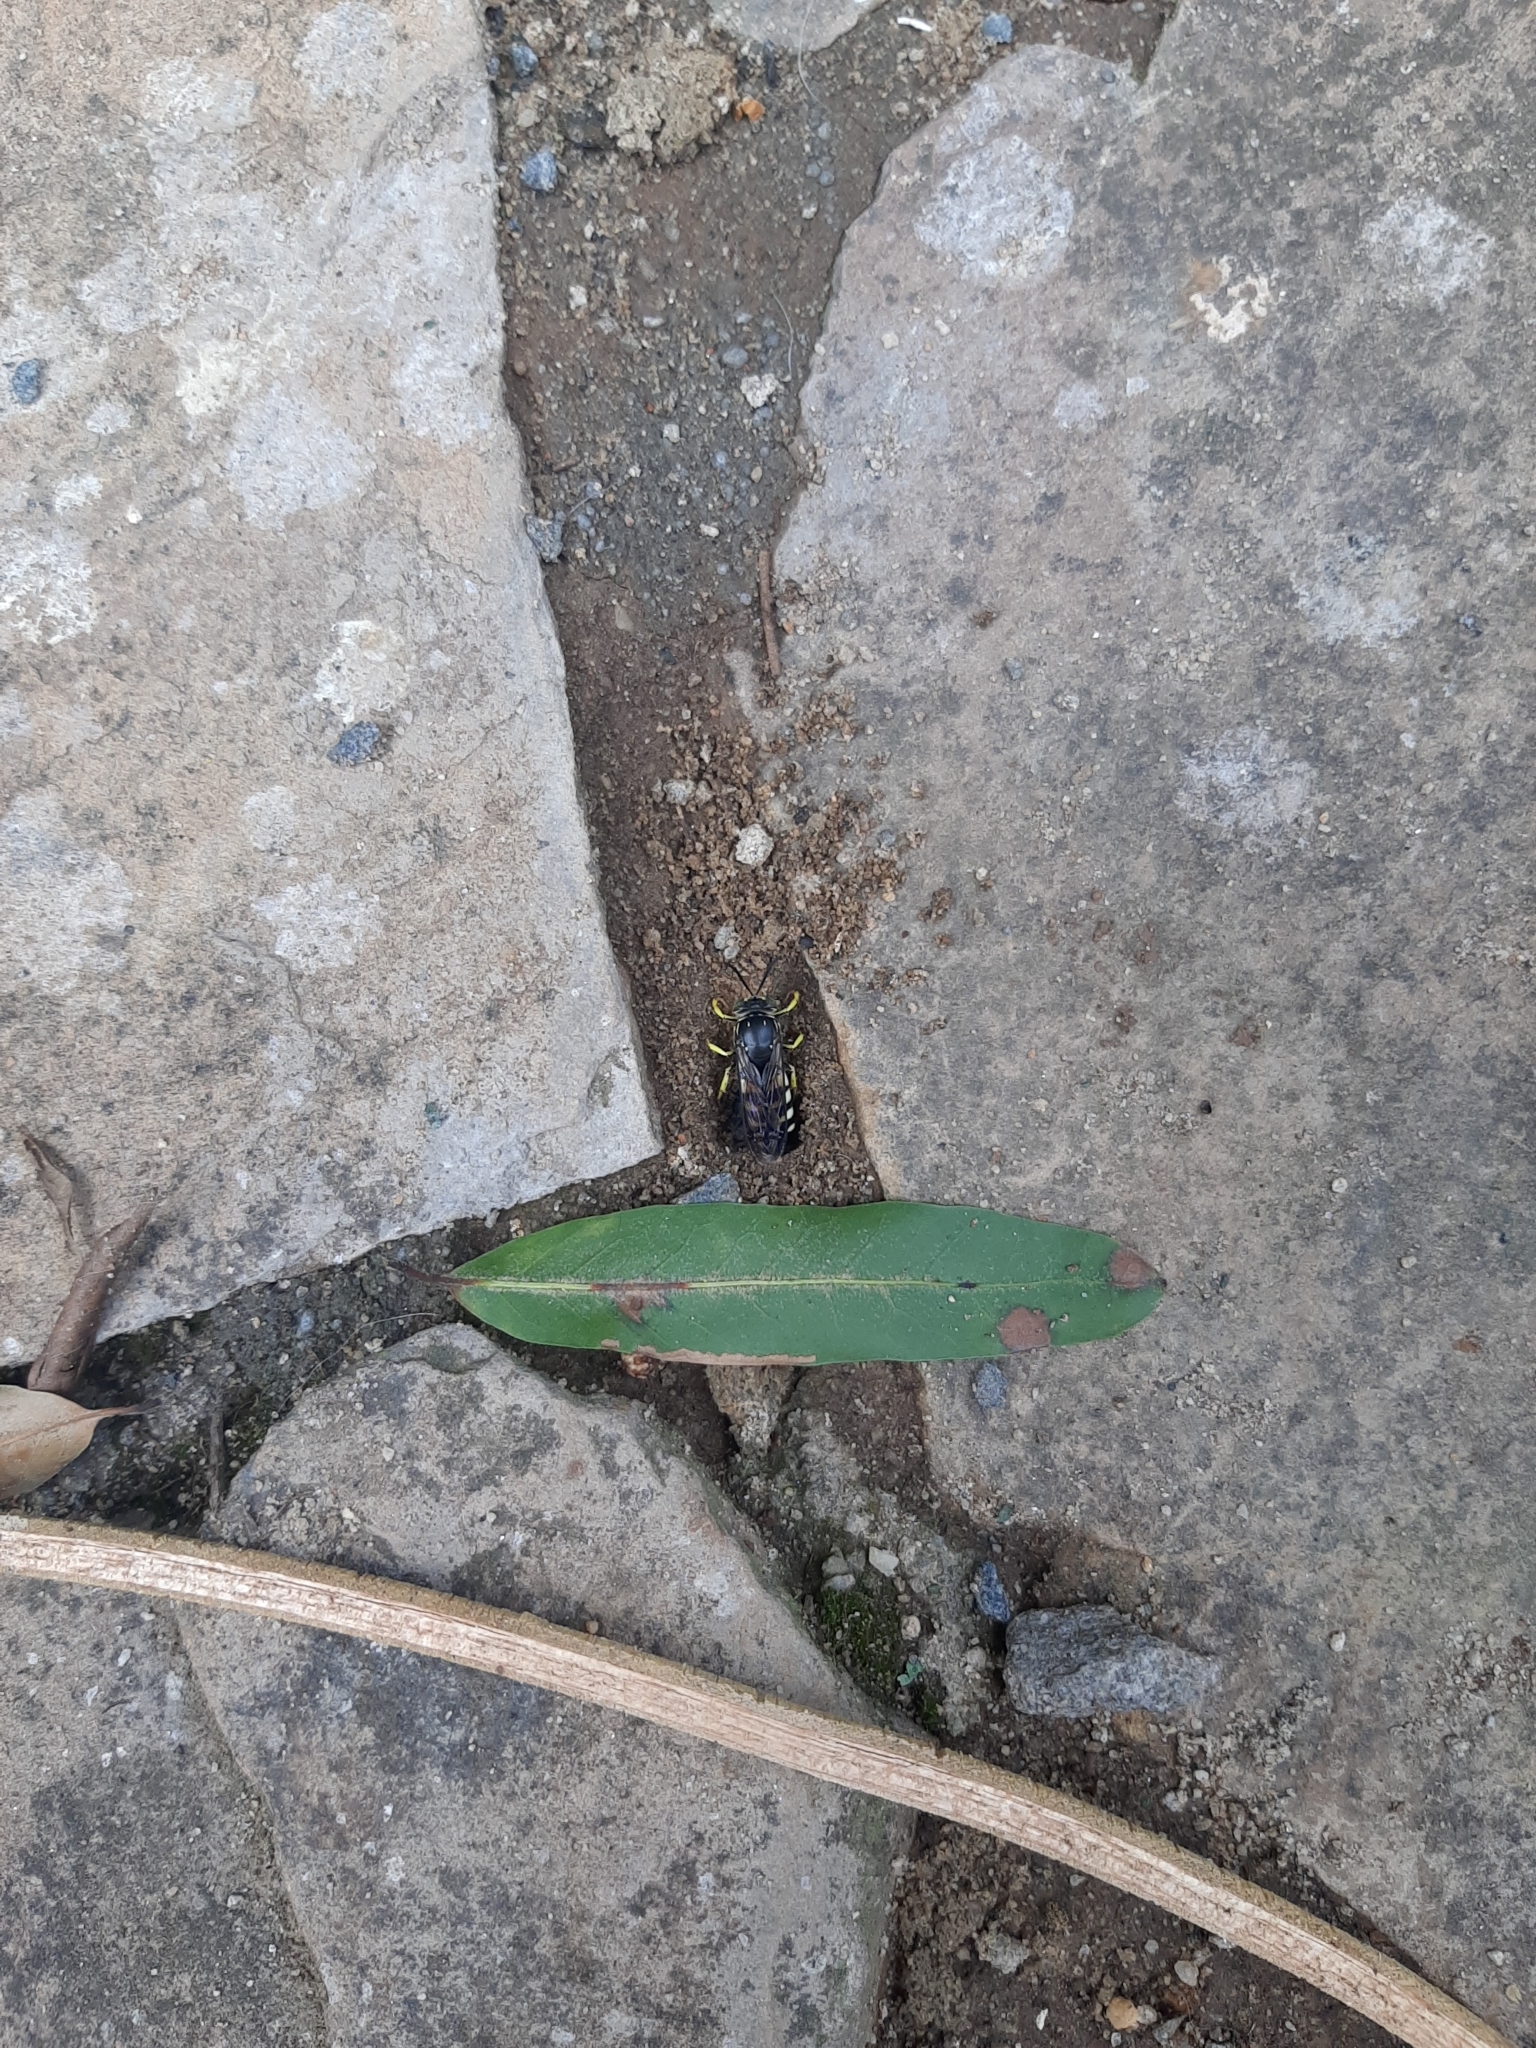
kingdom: Animalia
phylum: Arthropoda
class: Insecta
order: Hymenoptera
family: Crabronidae
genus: Bicyrtes
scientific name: Bicyrtes quadrifasciatus
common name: Four-banded stink bug hunter wasp
